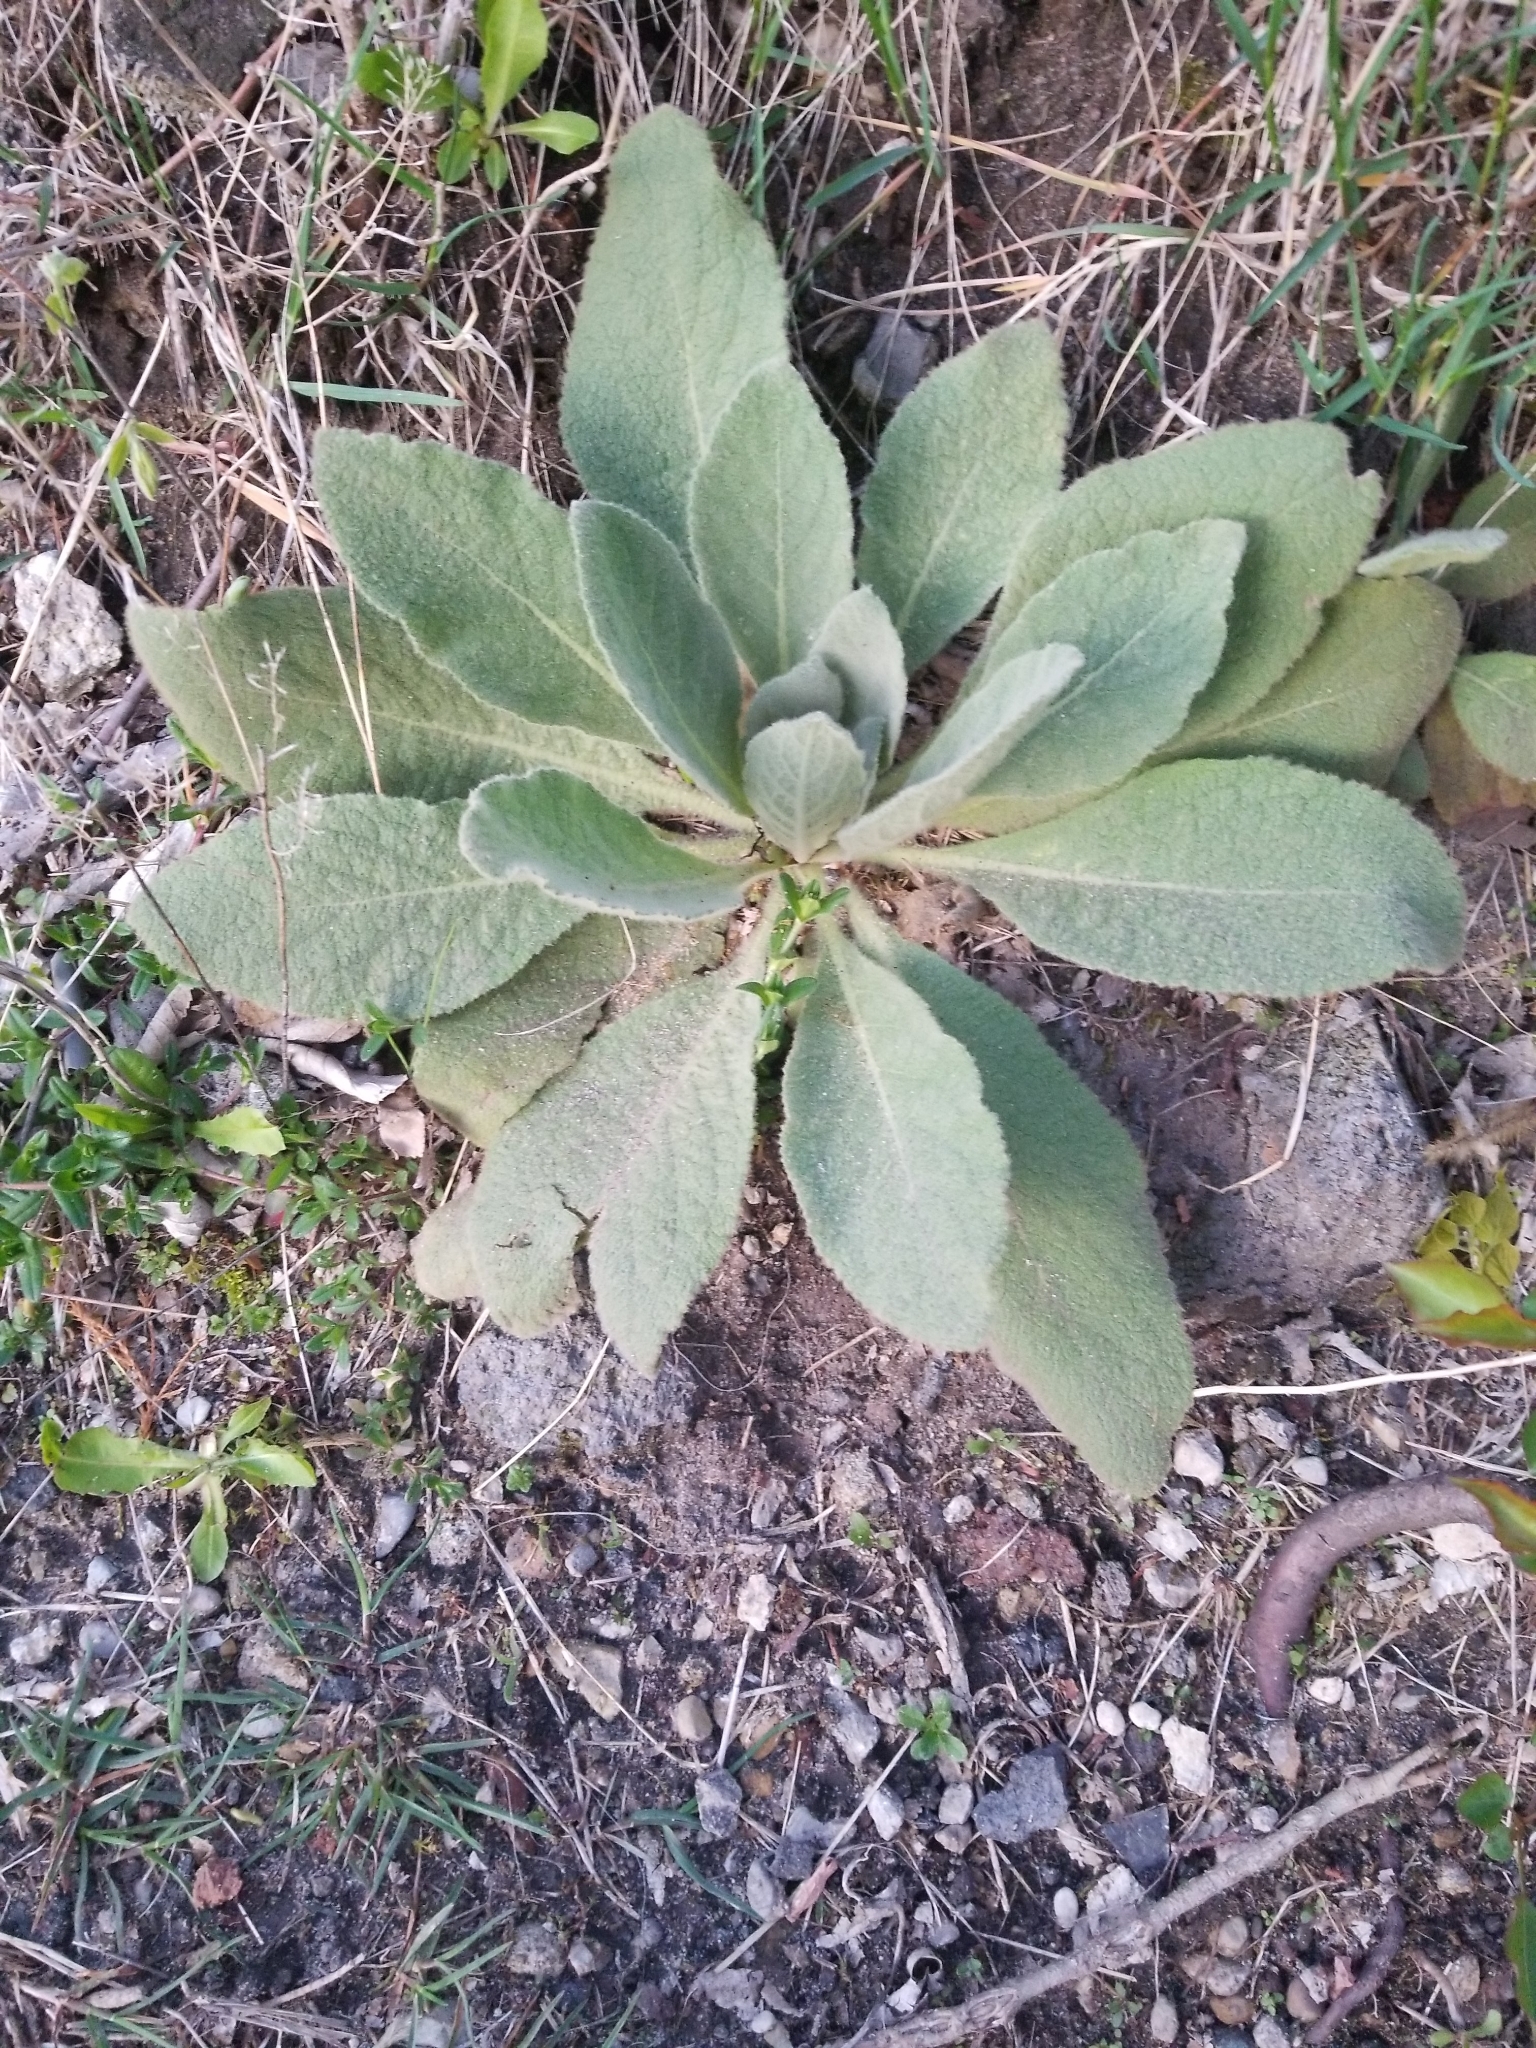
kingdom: Plantae
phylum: Tracheophyta
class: Magnoliopsida
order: Lamiales
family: Scrophulariaceae
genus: Verbascum
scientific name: Verbascum thapsus
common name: Common mullein
